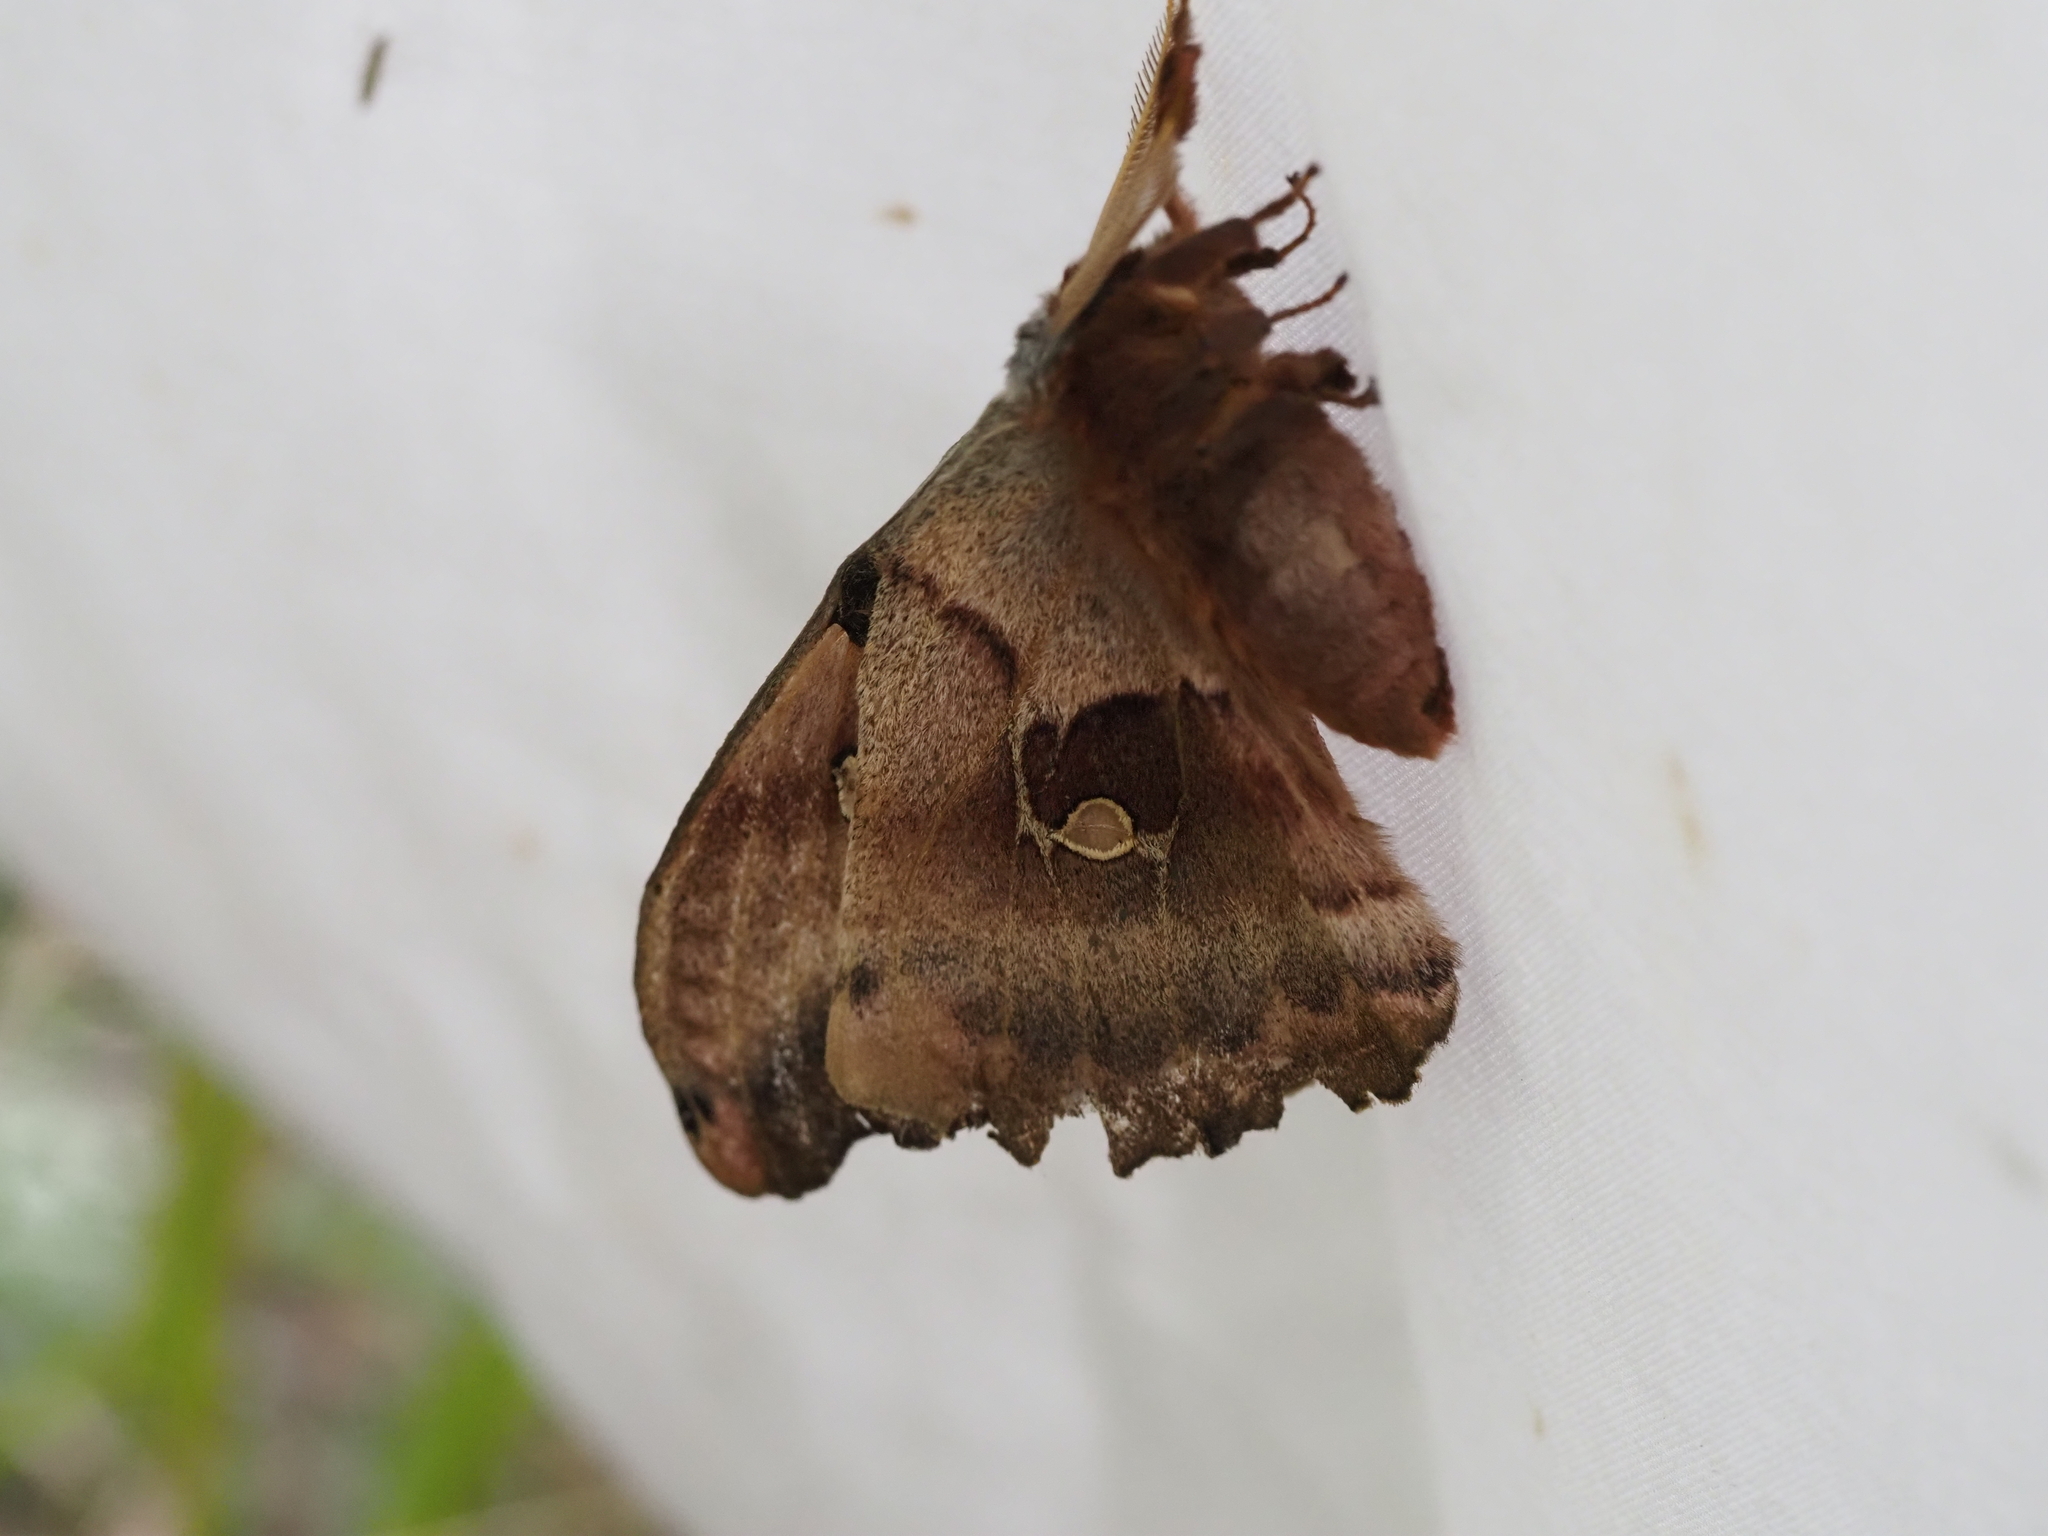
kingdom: Animalia
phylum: Arthropoda
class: Insecta
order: Lepidoptera
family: Saturniidae
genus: Antheraea
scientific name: Antheraea polyphemus
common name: Polyphemus moth
